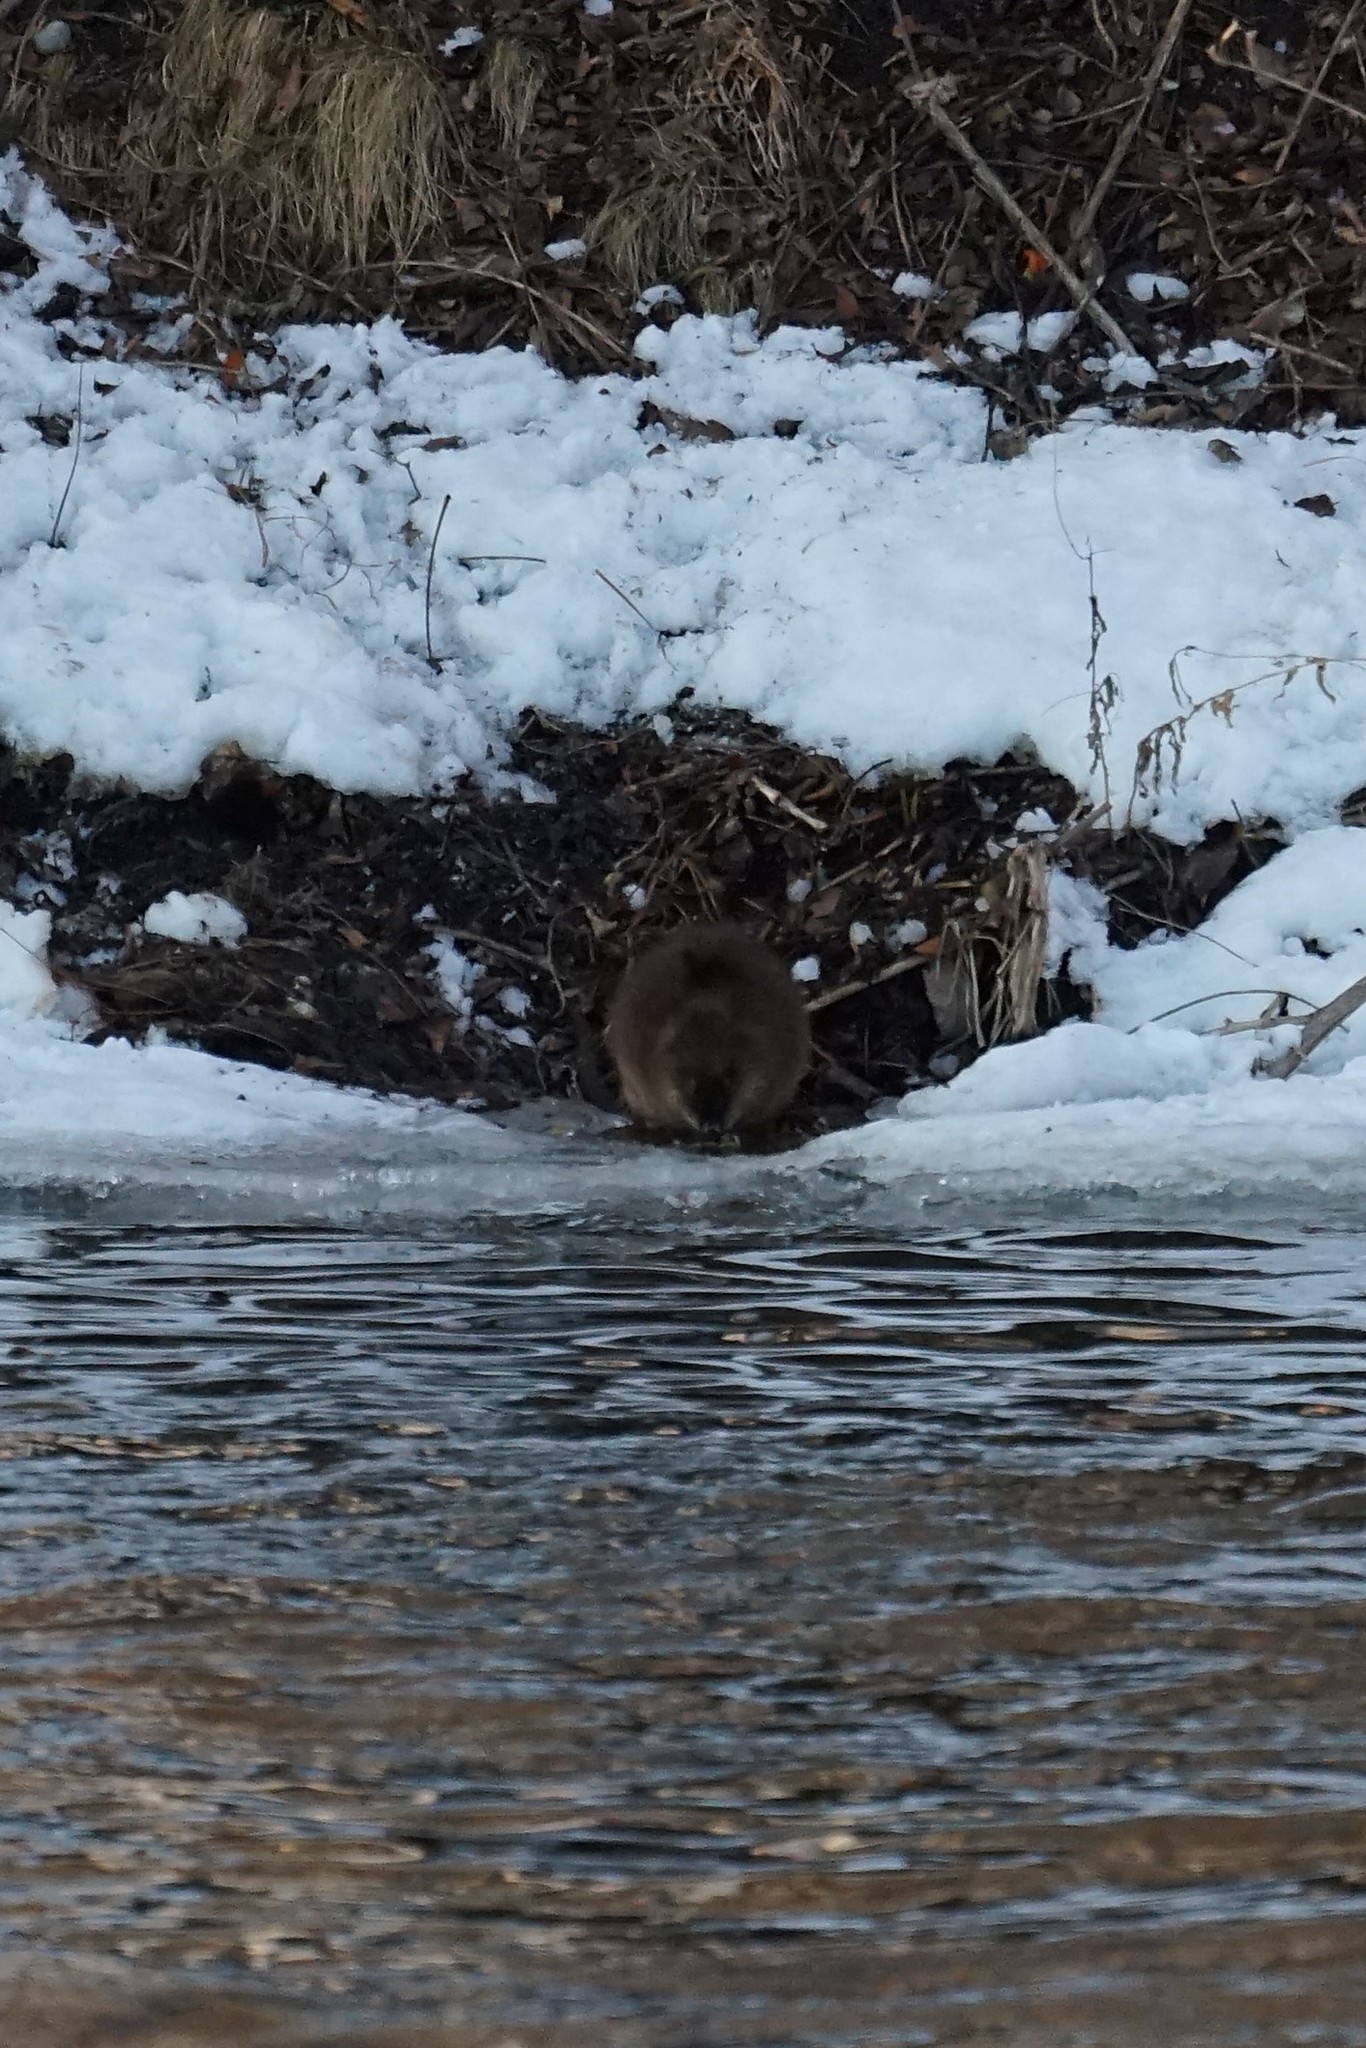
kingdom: Animalia
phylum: Chordata
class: Mammalia
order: Rodentia
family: Cricetidae
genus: Ondatra
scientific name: Ondatra zibethicus
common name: Muskrat
